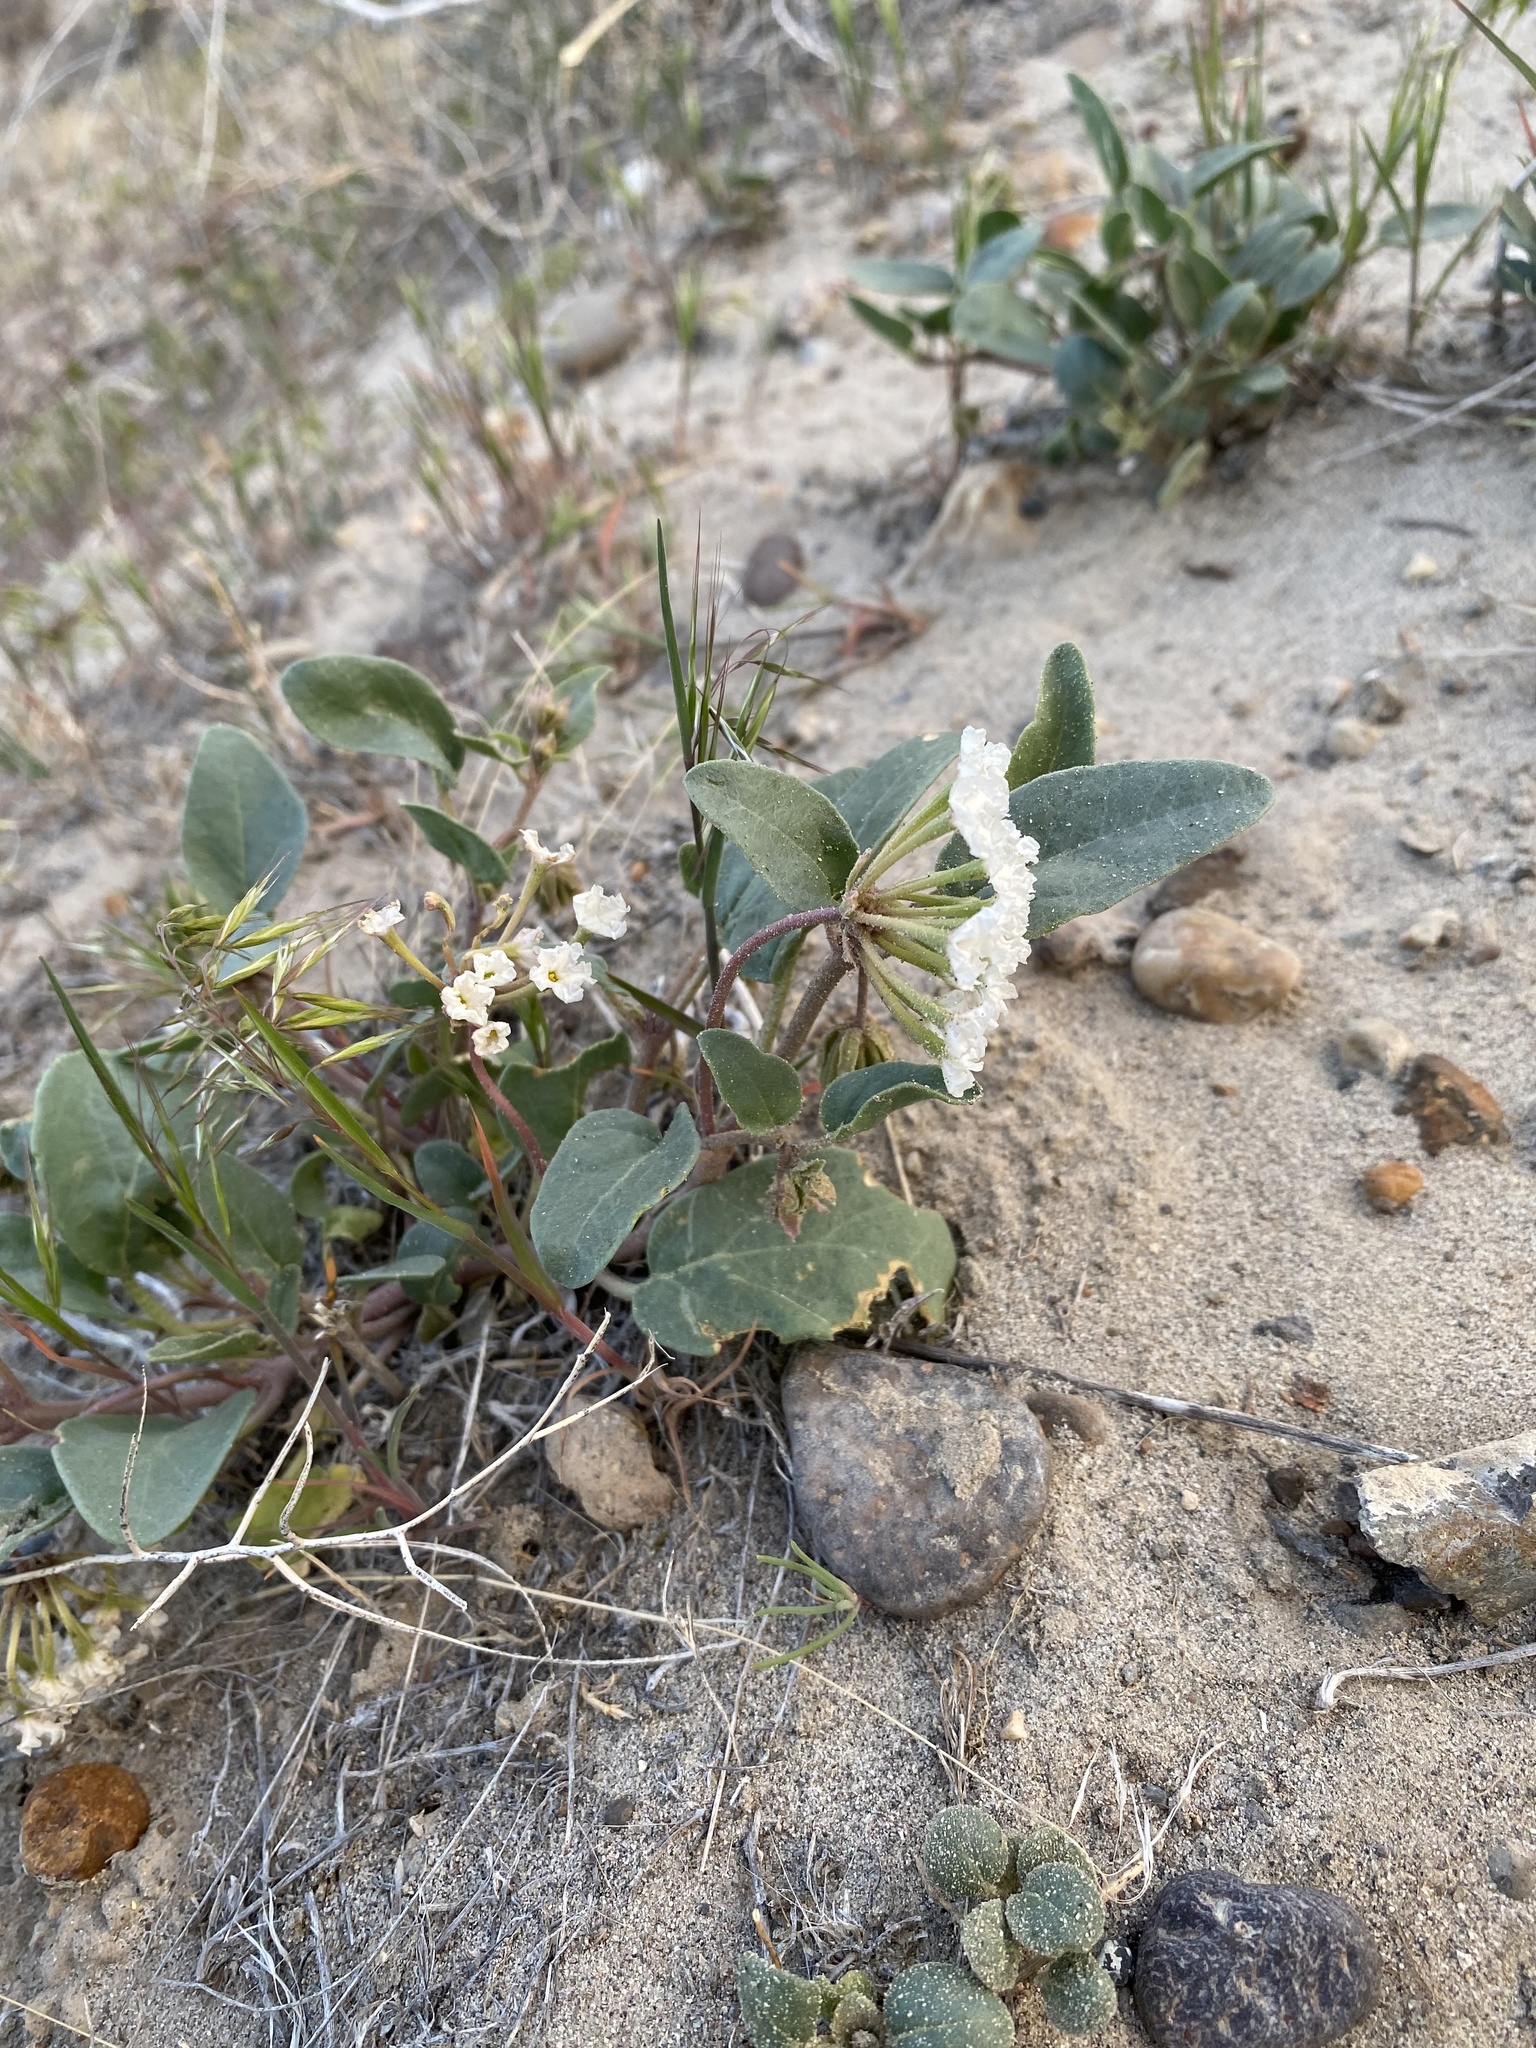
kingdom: Plantae
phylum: Tracheophyta
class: Magnoliopsida
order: Caryophyllales
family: Nyctaginaceae
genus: Abronia
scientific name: Abronia mellifera
